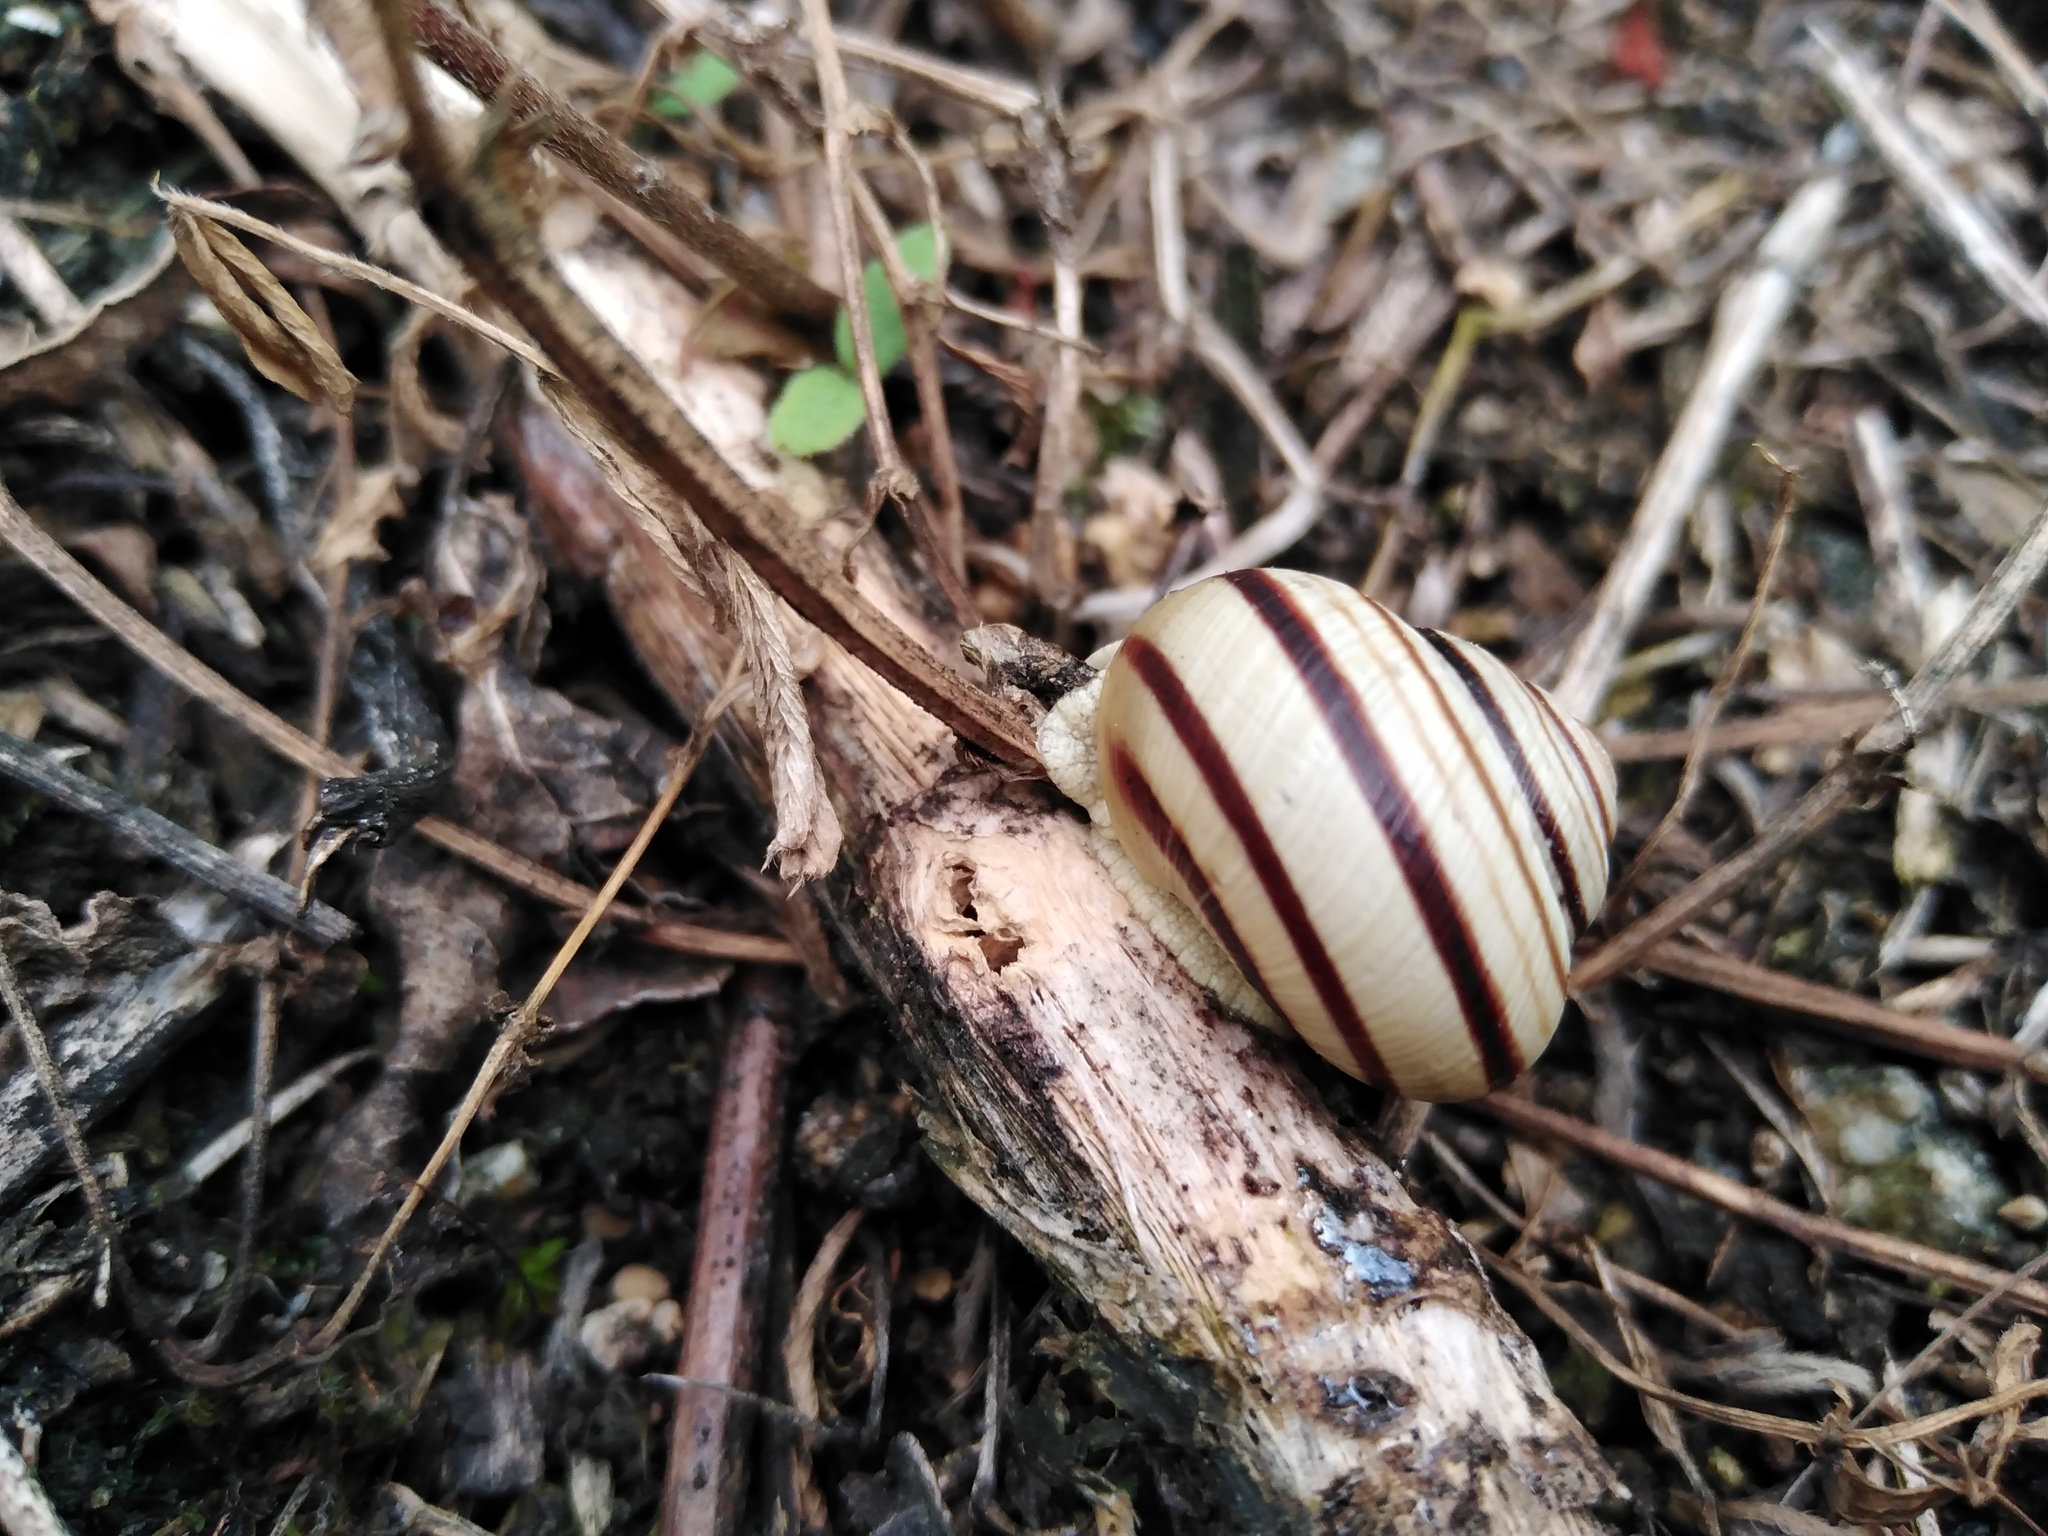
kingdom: Animalia
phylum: Mollusca
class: Gastropoda
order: Stylommatophora
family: Helicidae
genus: Caucasotachea
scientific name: Caucasotachea vindobonensis
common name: European helicid land snail
